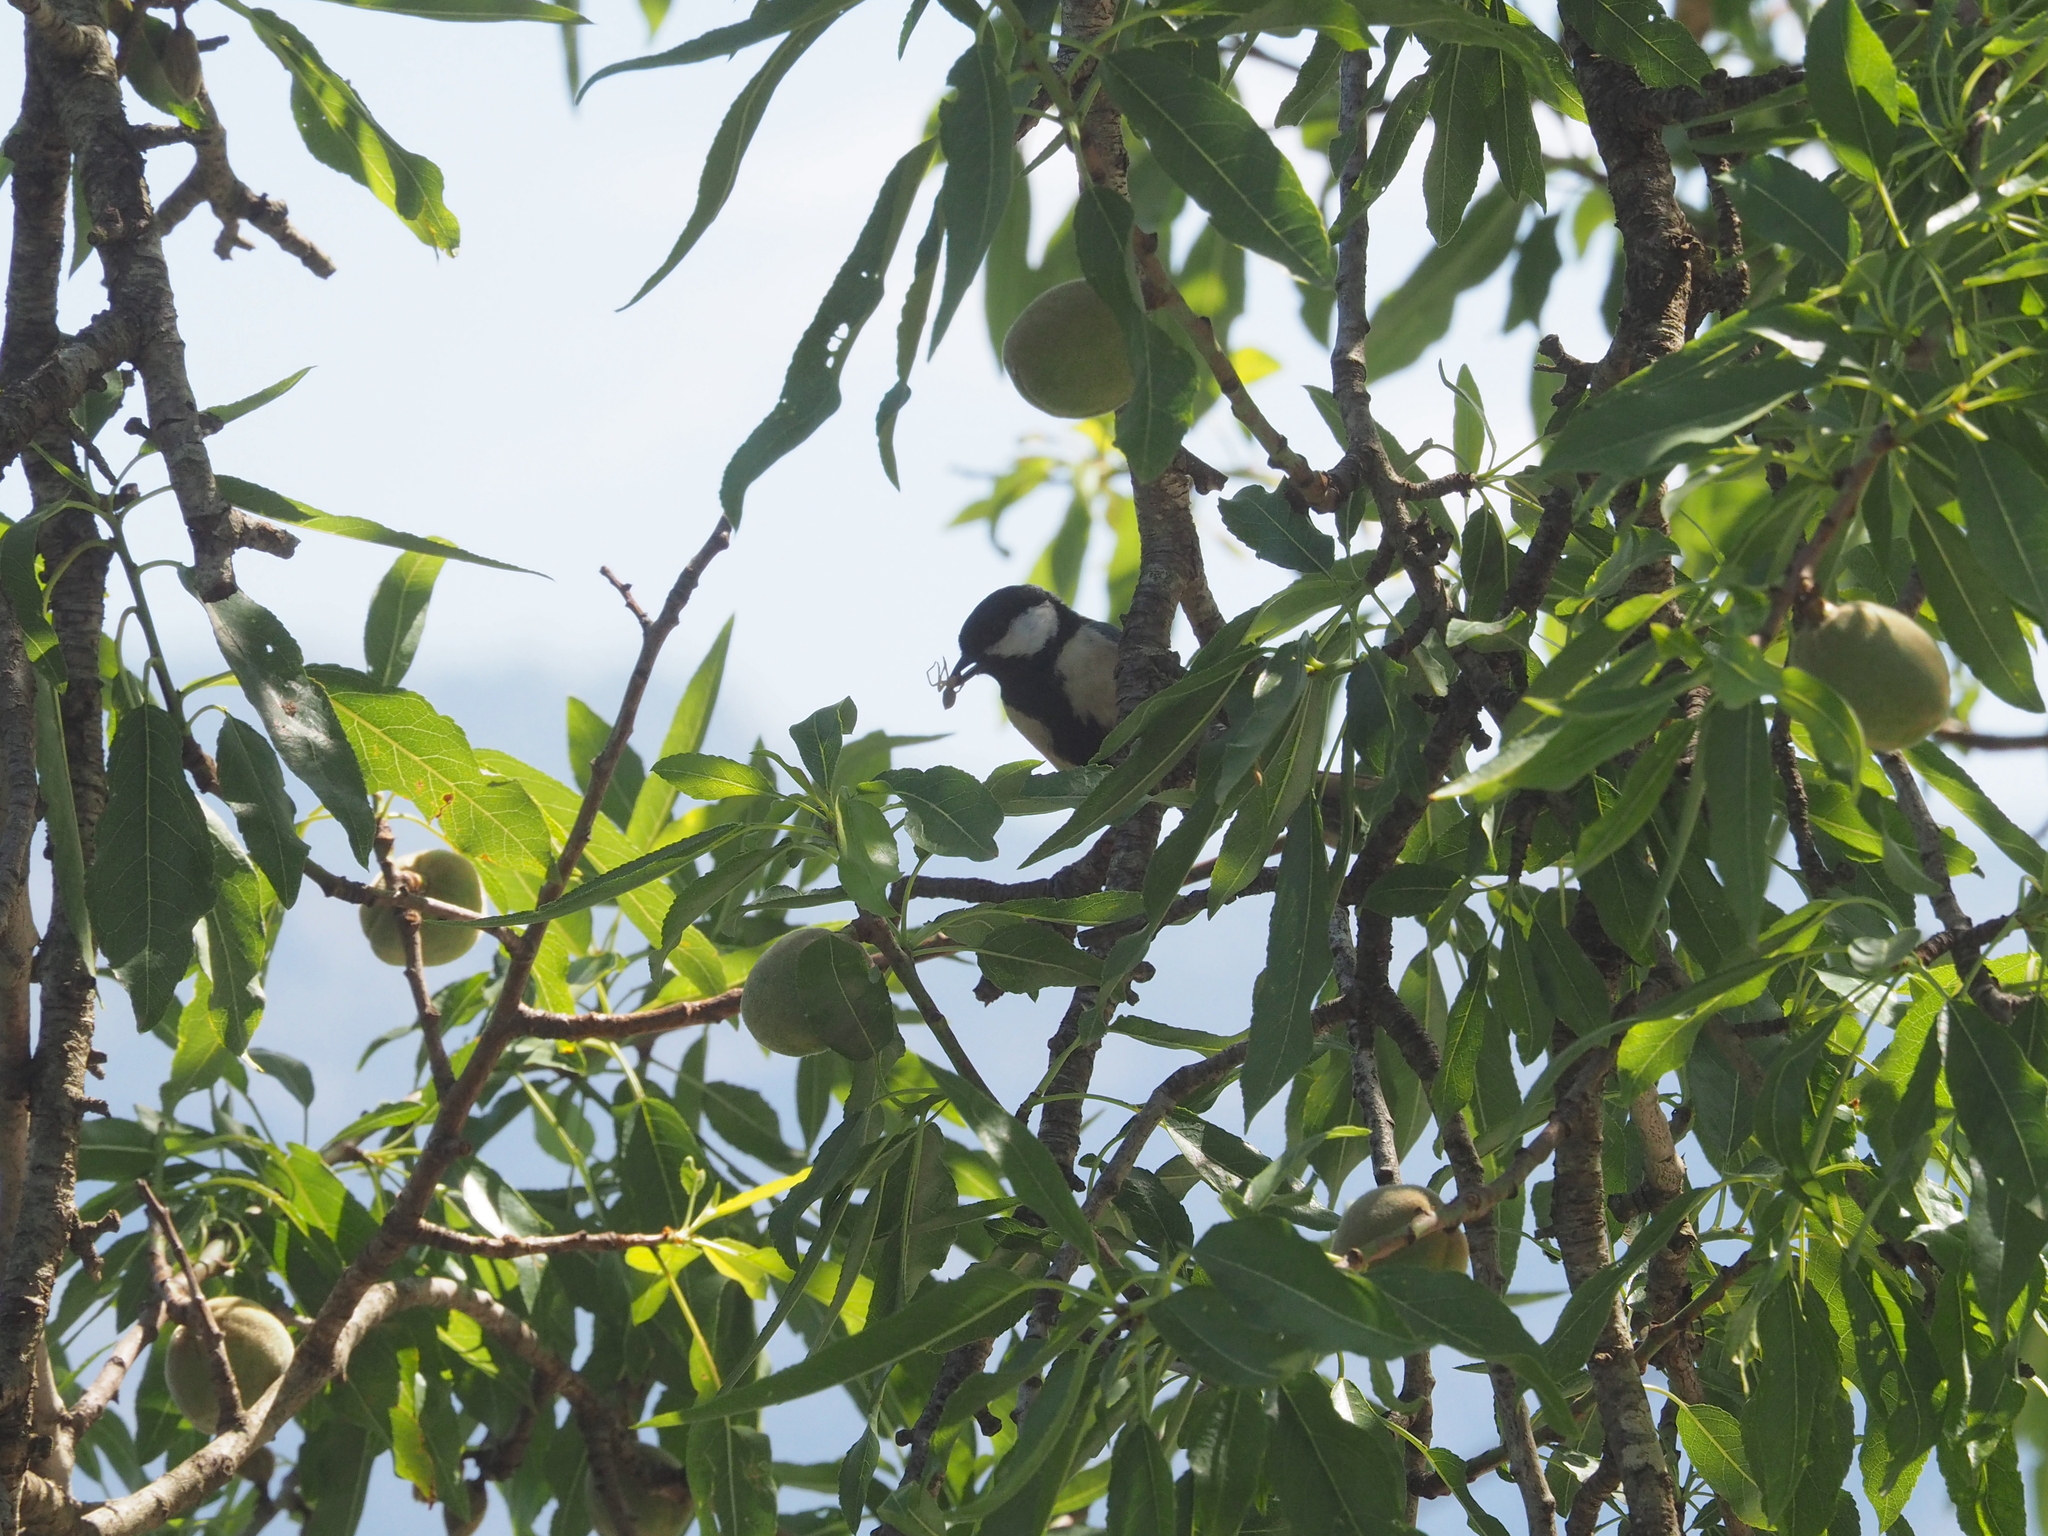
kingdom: Animalia
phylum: Chordata
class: Aves
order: Passeriformes
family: Paridae
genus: Parus
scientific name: Parus major
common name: Great tit
